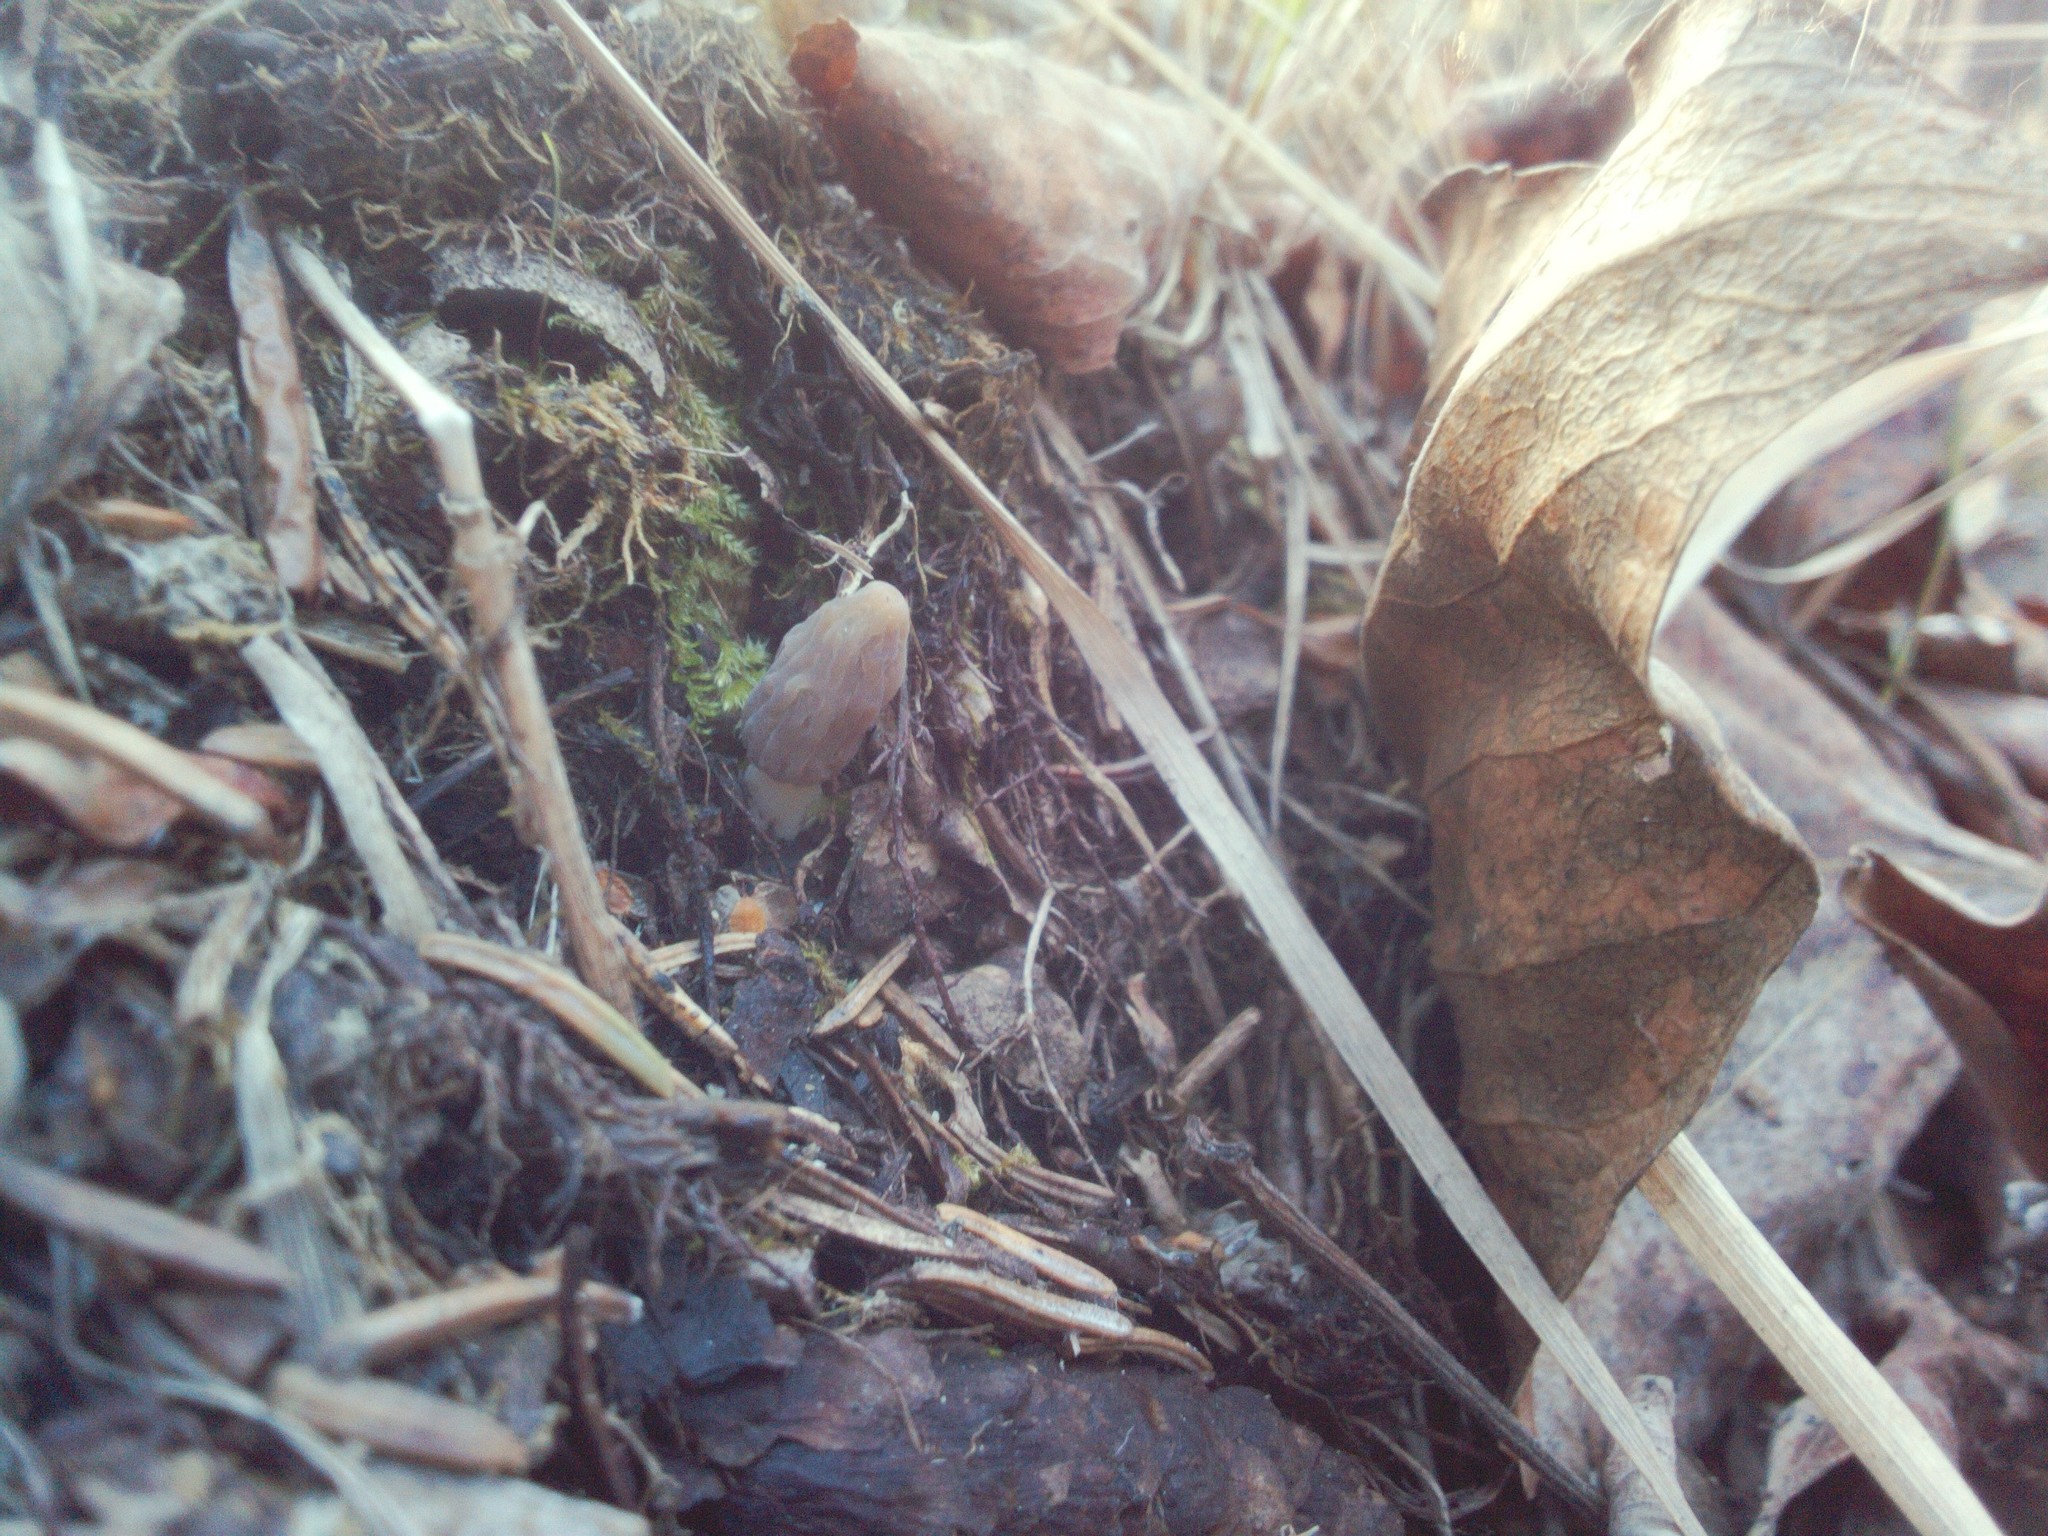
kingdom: Fungi
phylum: Ascomycota
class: Pezizomycetes
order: Pezizales
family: Morchellaceae
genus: Morchella
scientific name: Morchella pulchella
